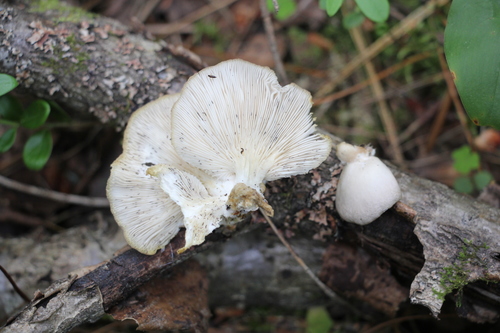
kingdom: Fungi
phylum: Basidiomycota
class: Agaricomycetes
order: Agaricales
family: Pleurotaceae
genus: Pleurotus
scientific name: Pleurotus pulmonarius
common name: Pale oyster
